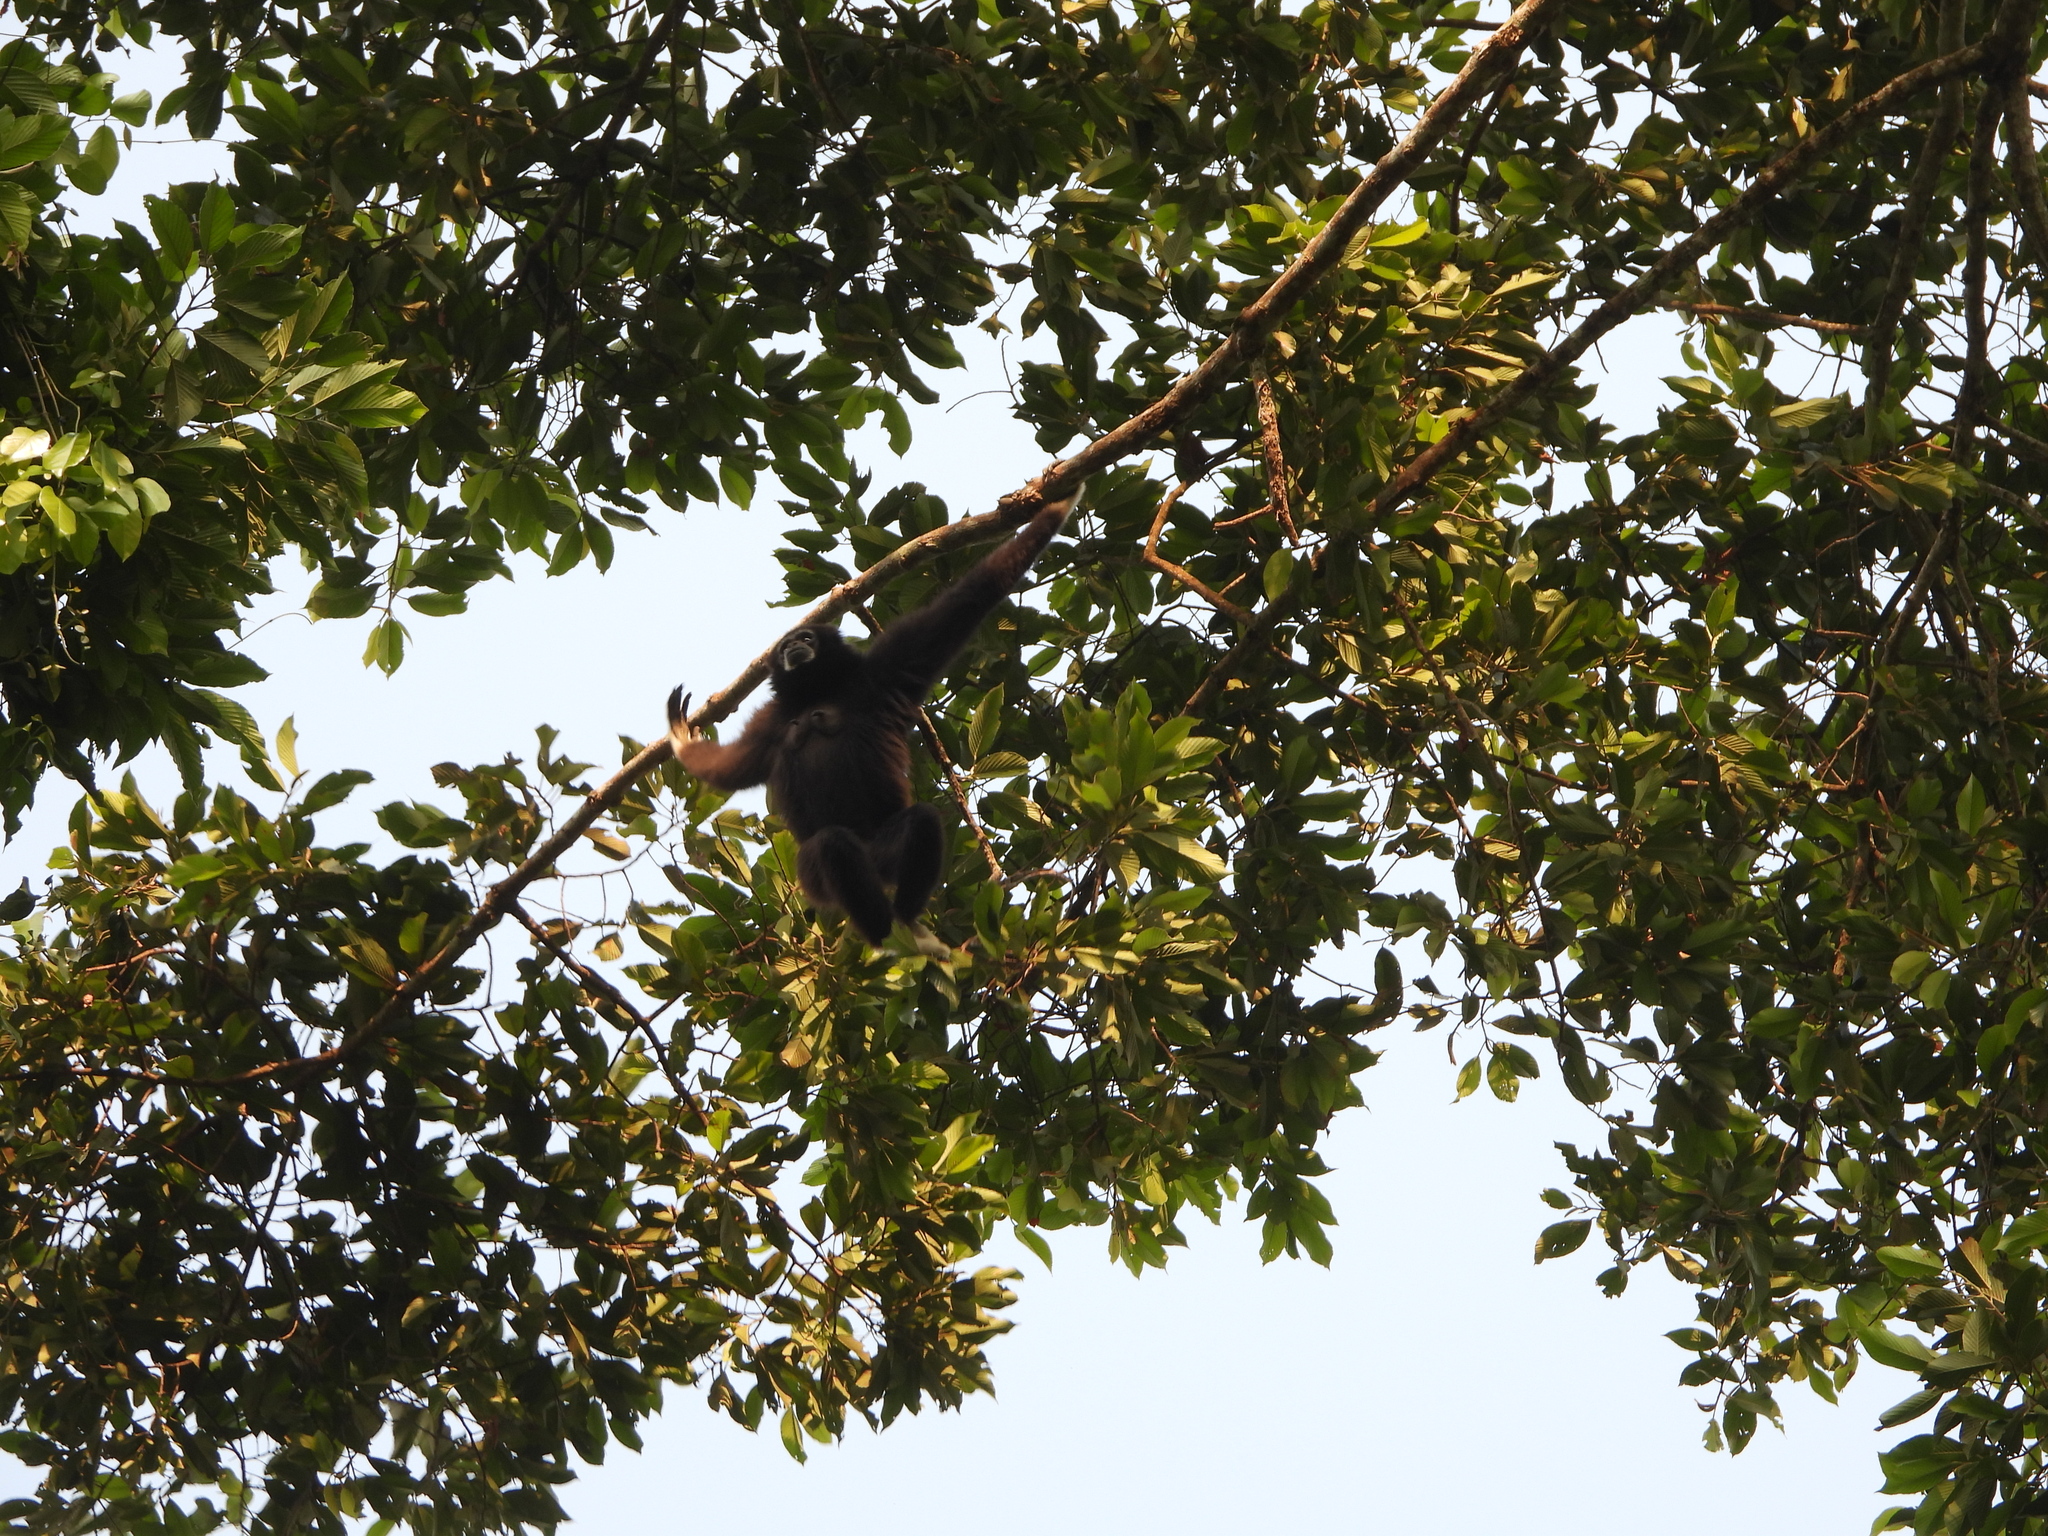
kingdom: Animalia
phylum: Chordata
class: Mammalia
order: Primates
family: Hylobatidae
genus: Hylobates
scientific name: Hylobates lar
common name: Lar gibbon
